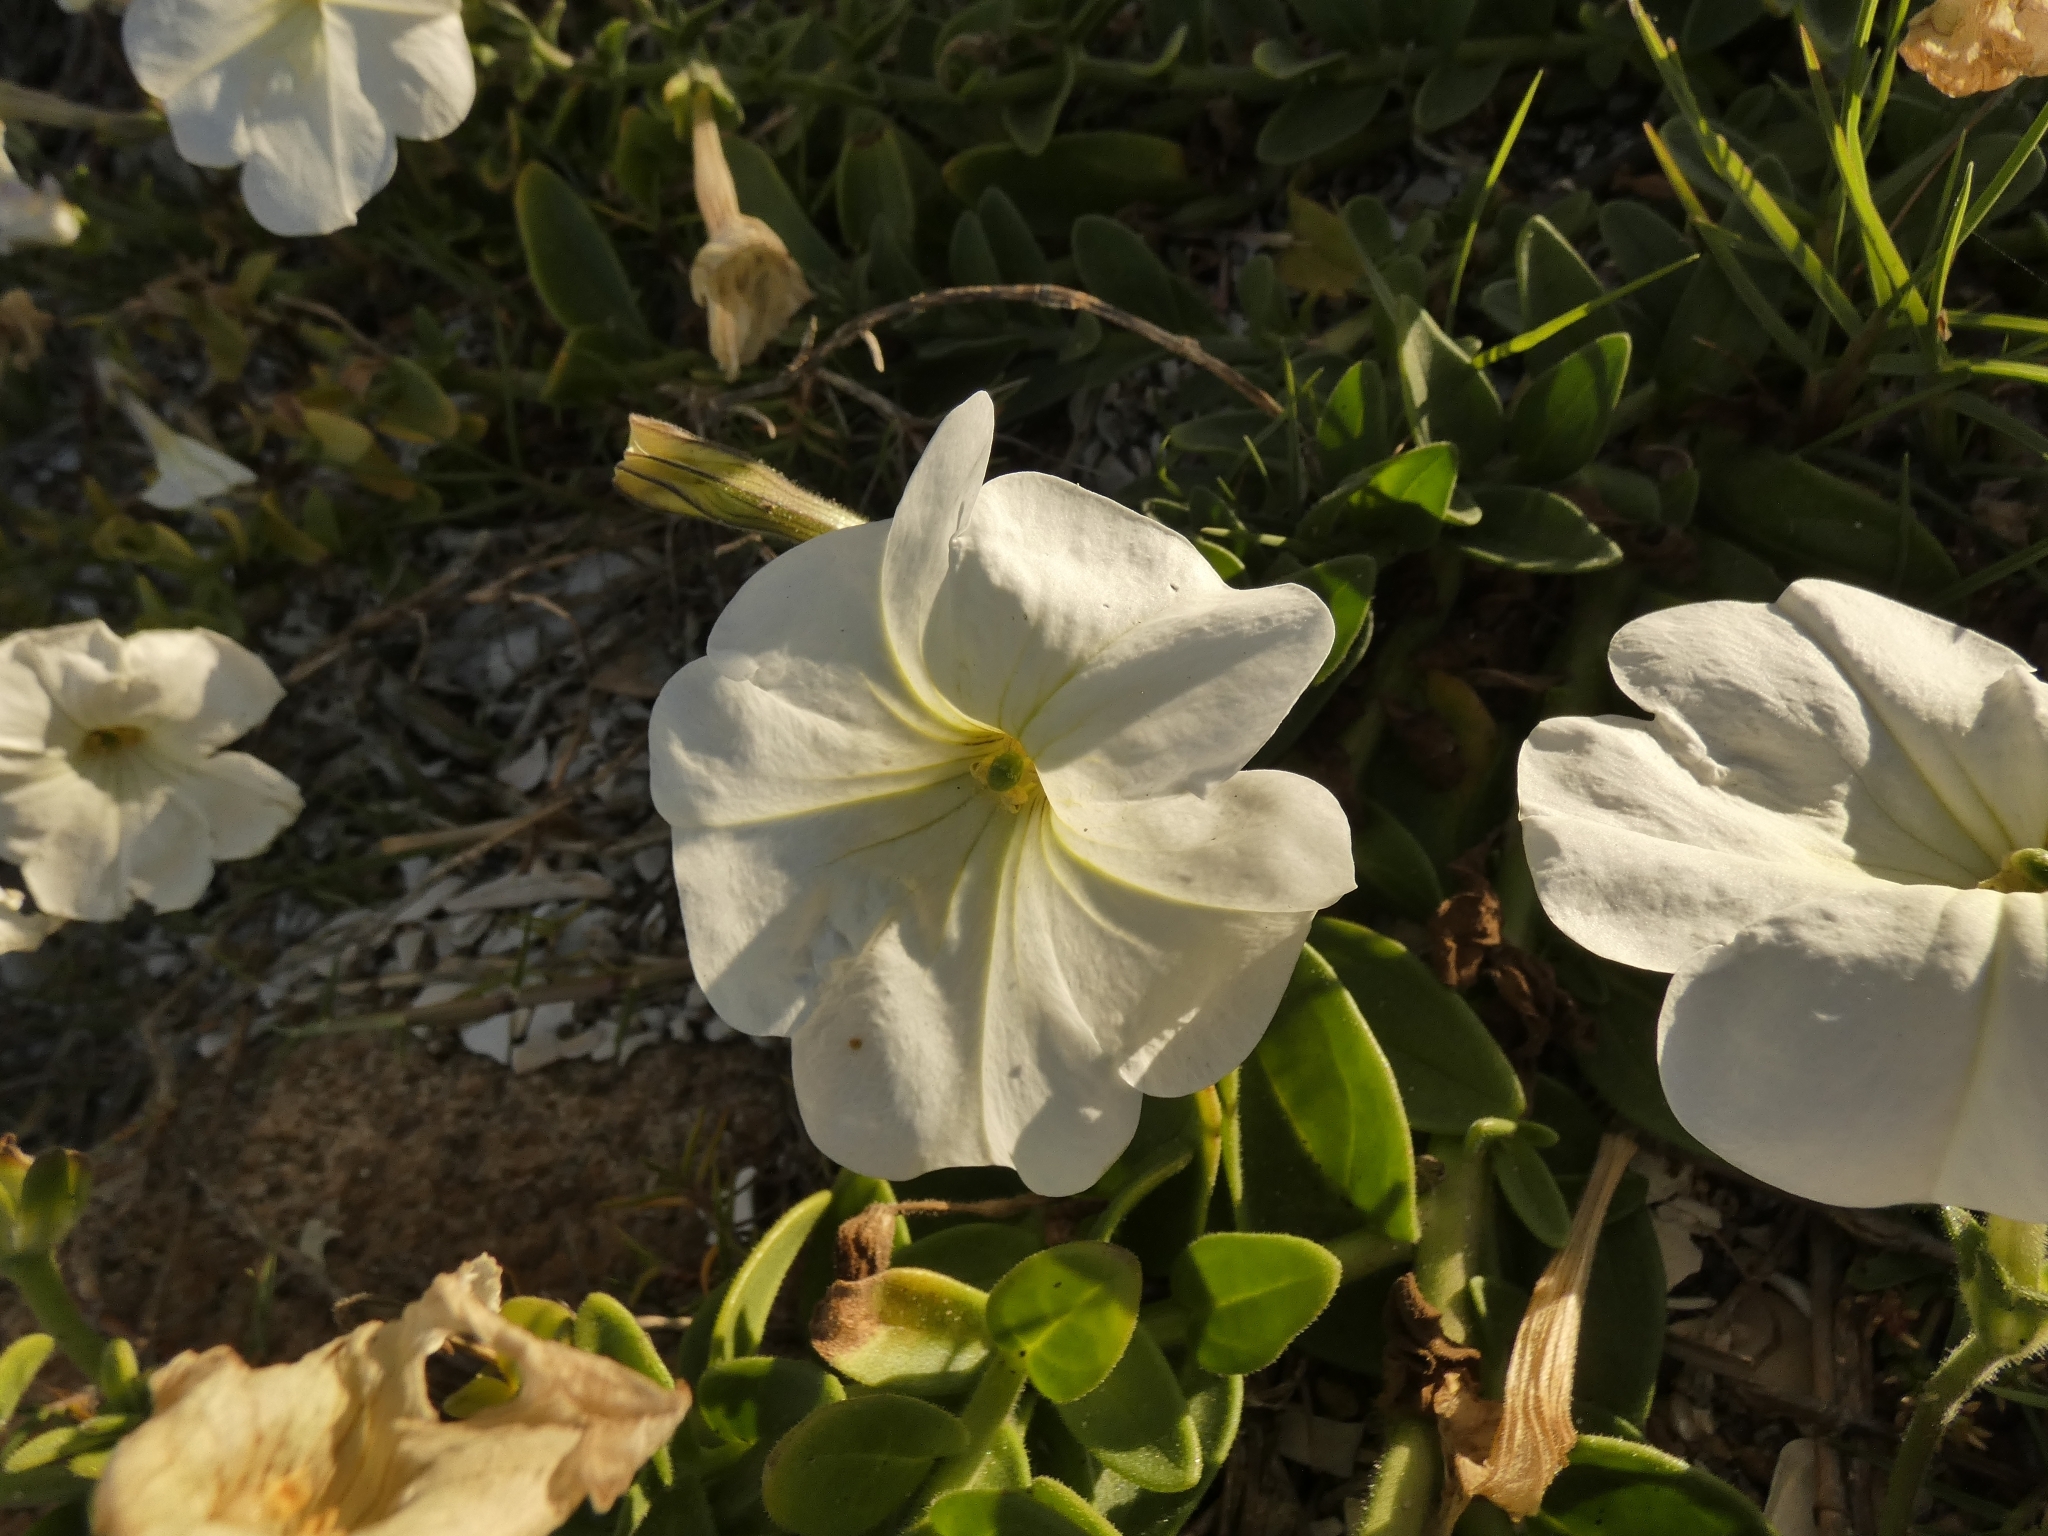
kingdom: Plantae
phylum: Tracheophyta
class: Magnoliopsida
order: Solanales
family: Solanaceae
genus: Petunia
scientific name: Petunia axillaris
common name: Large white petunia
